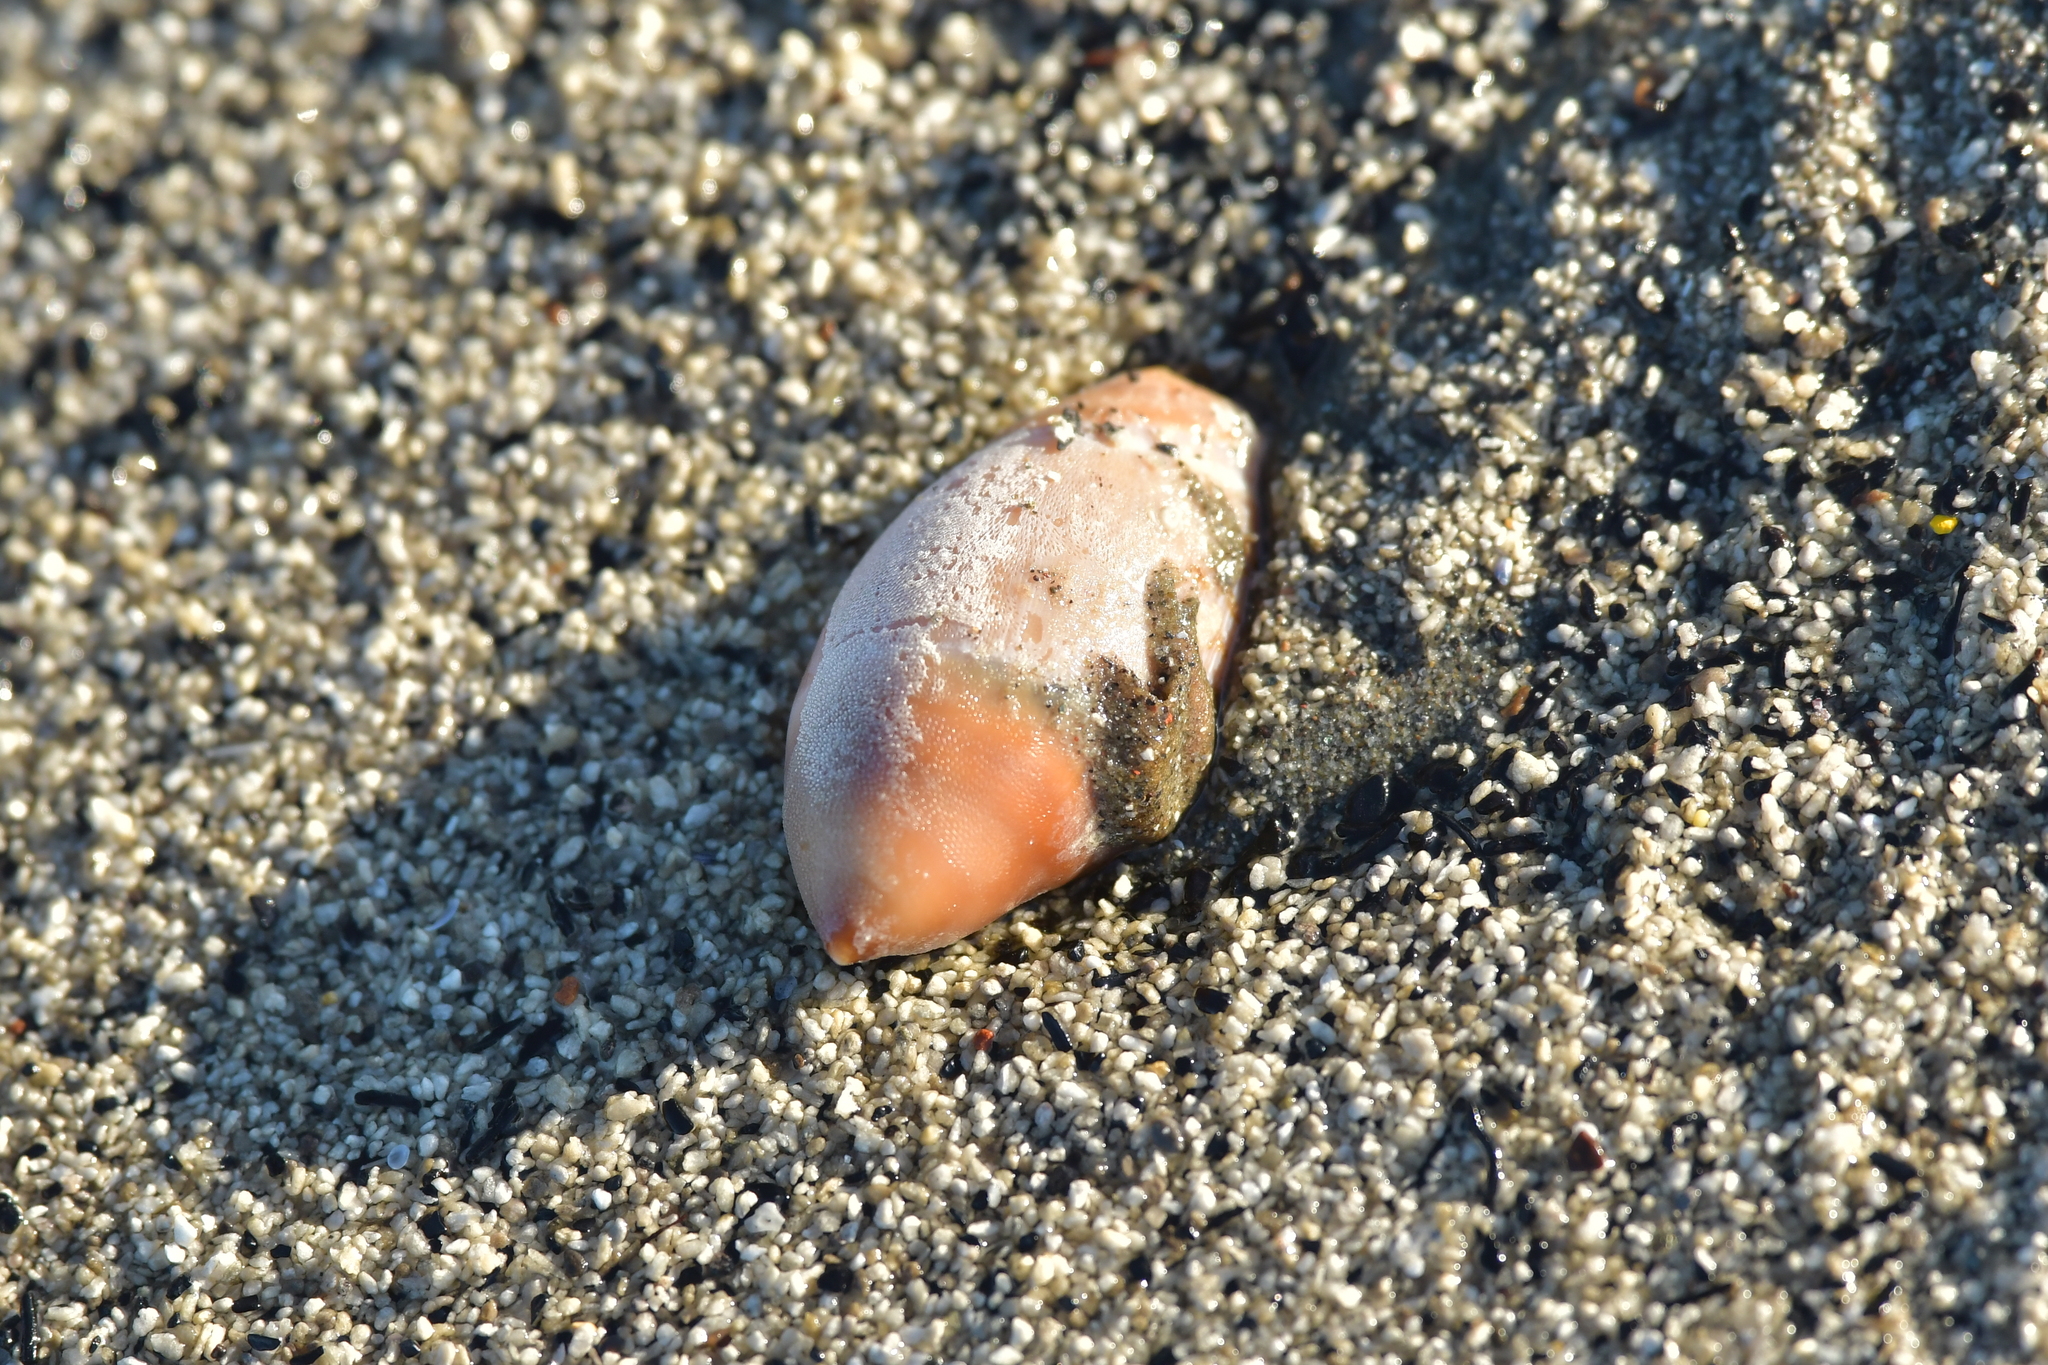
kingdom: Animalia
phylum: Mollusca
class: Gastropoda
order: Neogastropoda
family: Ancillariidae
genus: Amalda
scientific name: Amalda mucronata
